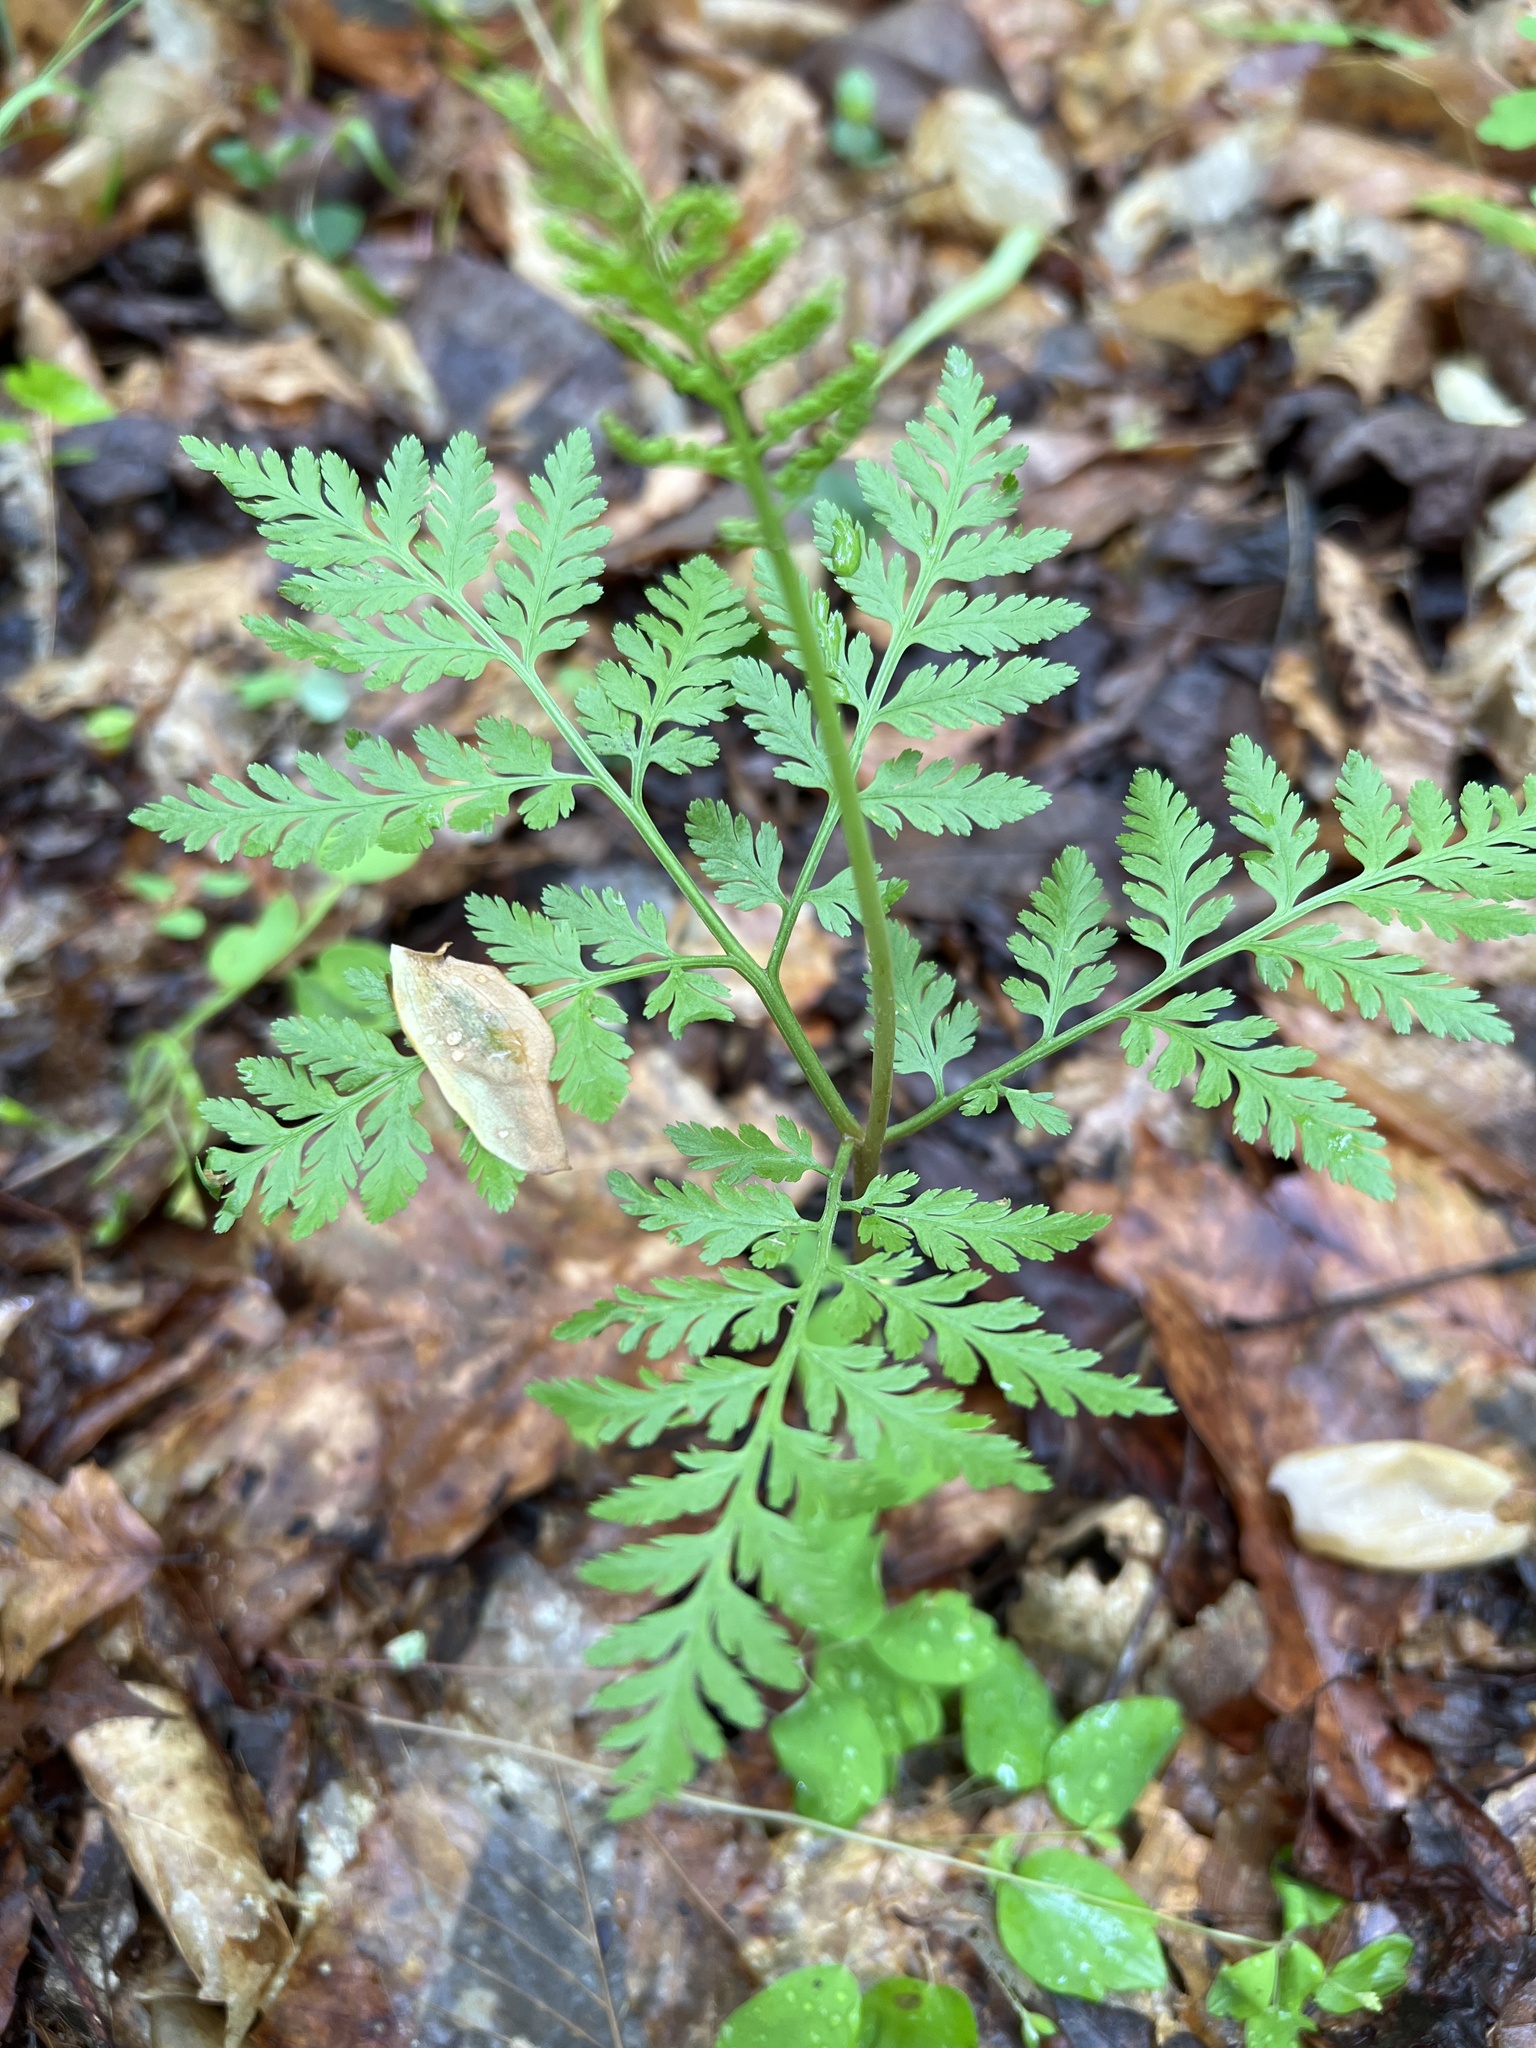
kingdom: Plantae
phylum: Tracheophyta
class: Polypodiopsida
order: Ophioglossales
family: Ophioglossaceae
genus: Botrypus
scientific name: Botrypus virginianus
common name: Common grapefern
